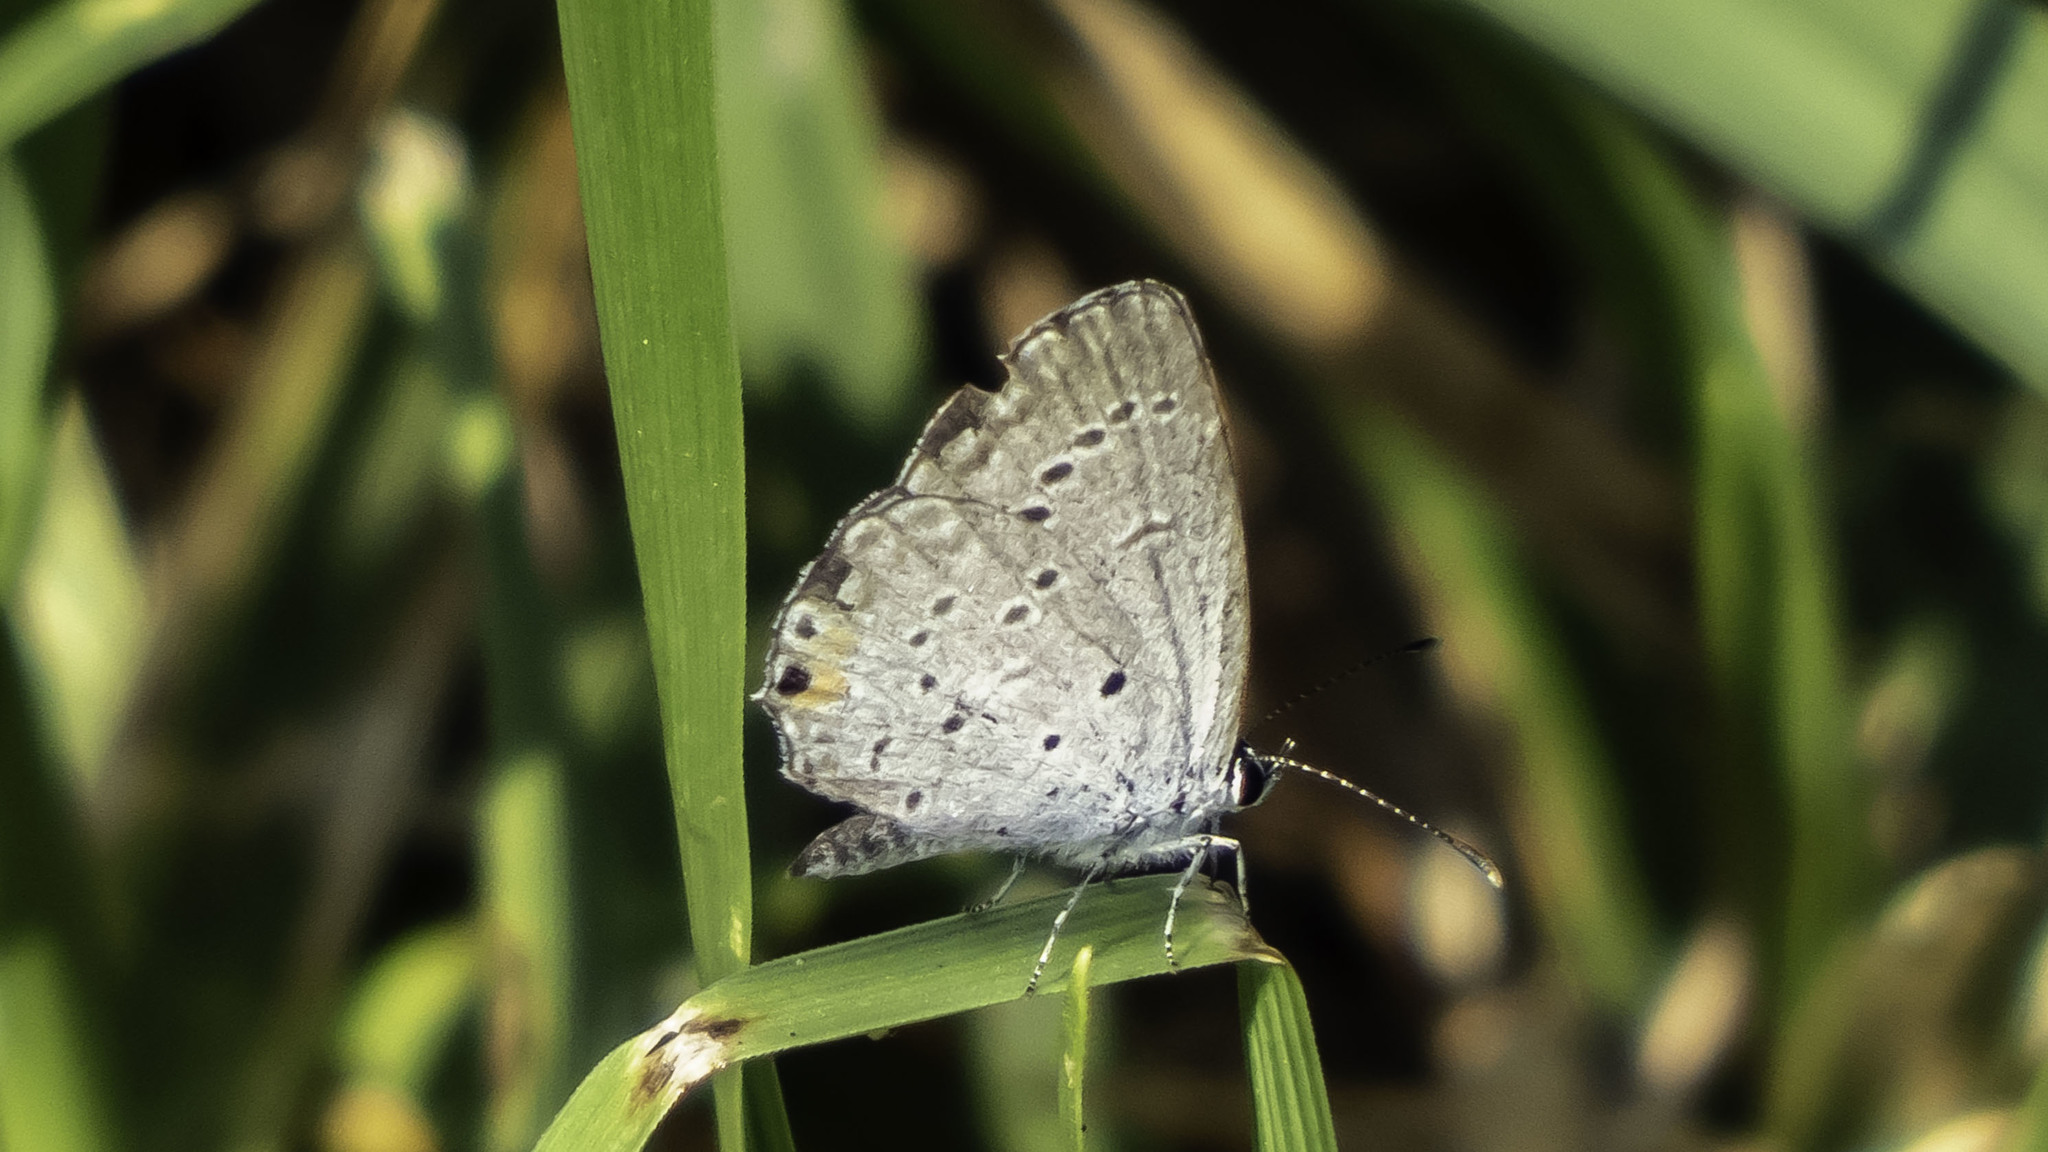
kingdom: Animalia
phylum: Arthropoda
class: Insecta
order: Lepidoptera
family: Lycaenidae
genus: Elkalyce
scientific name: Elkalyce comyntas
